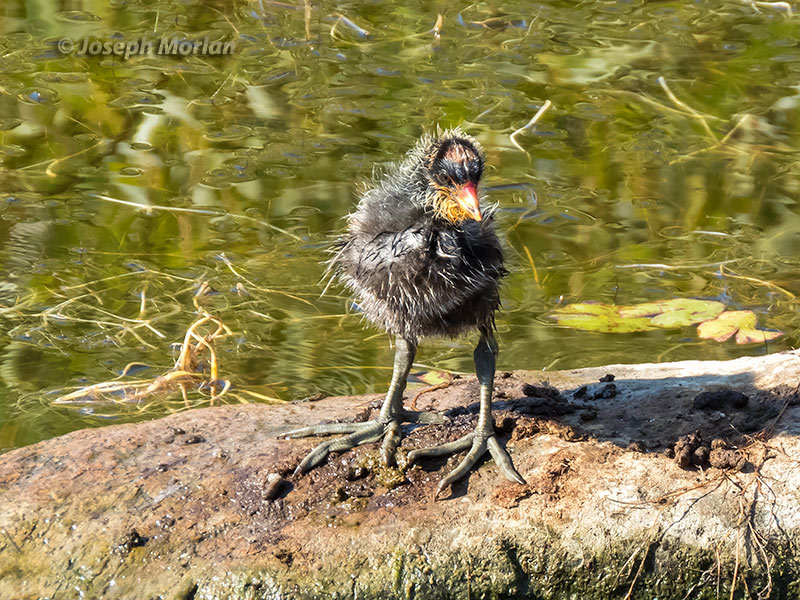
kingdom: Animalia
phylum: Chordata
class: Aves
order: Gruiformes
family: Rallidae
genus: Fulica
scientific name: Fulica americana
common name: American coot
